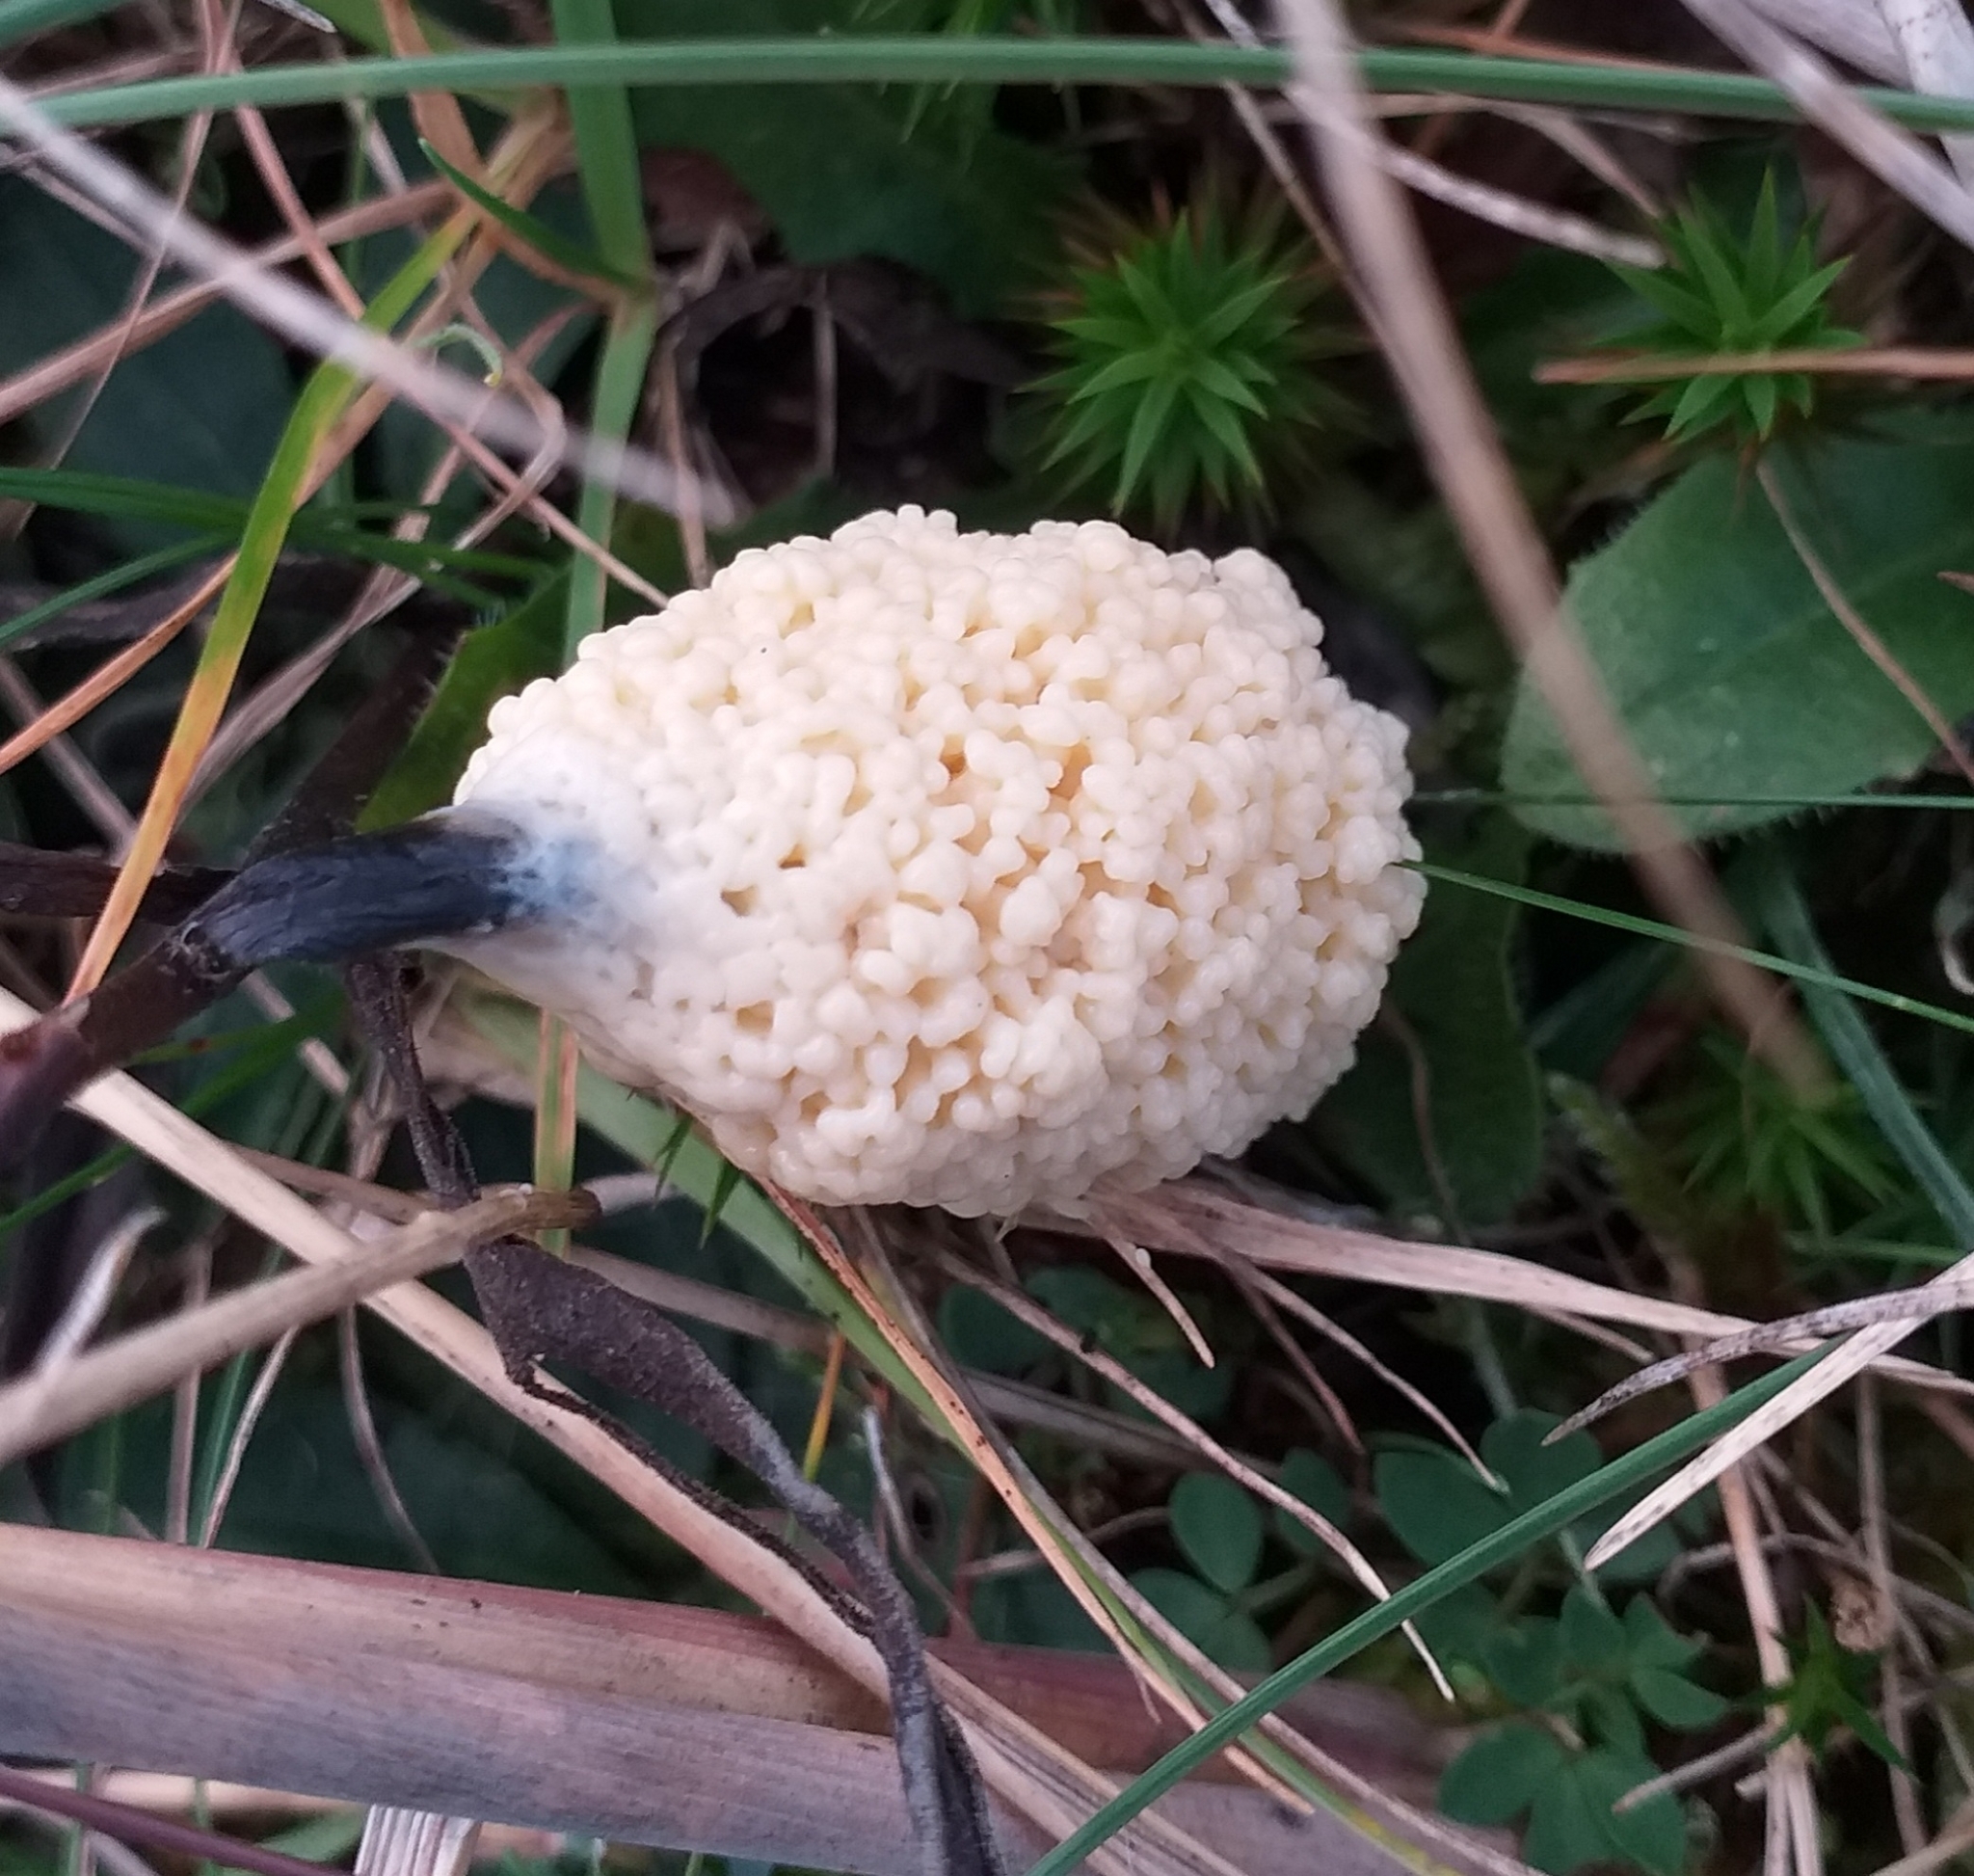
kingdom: Protozoa
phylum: Mycetozoa
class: Myxomycetes
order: Physarales
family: Physaraceae
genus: Didymium
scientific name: Didymium
